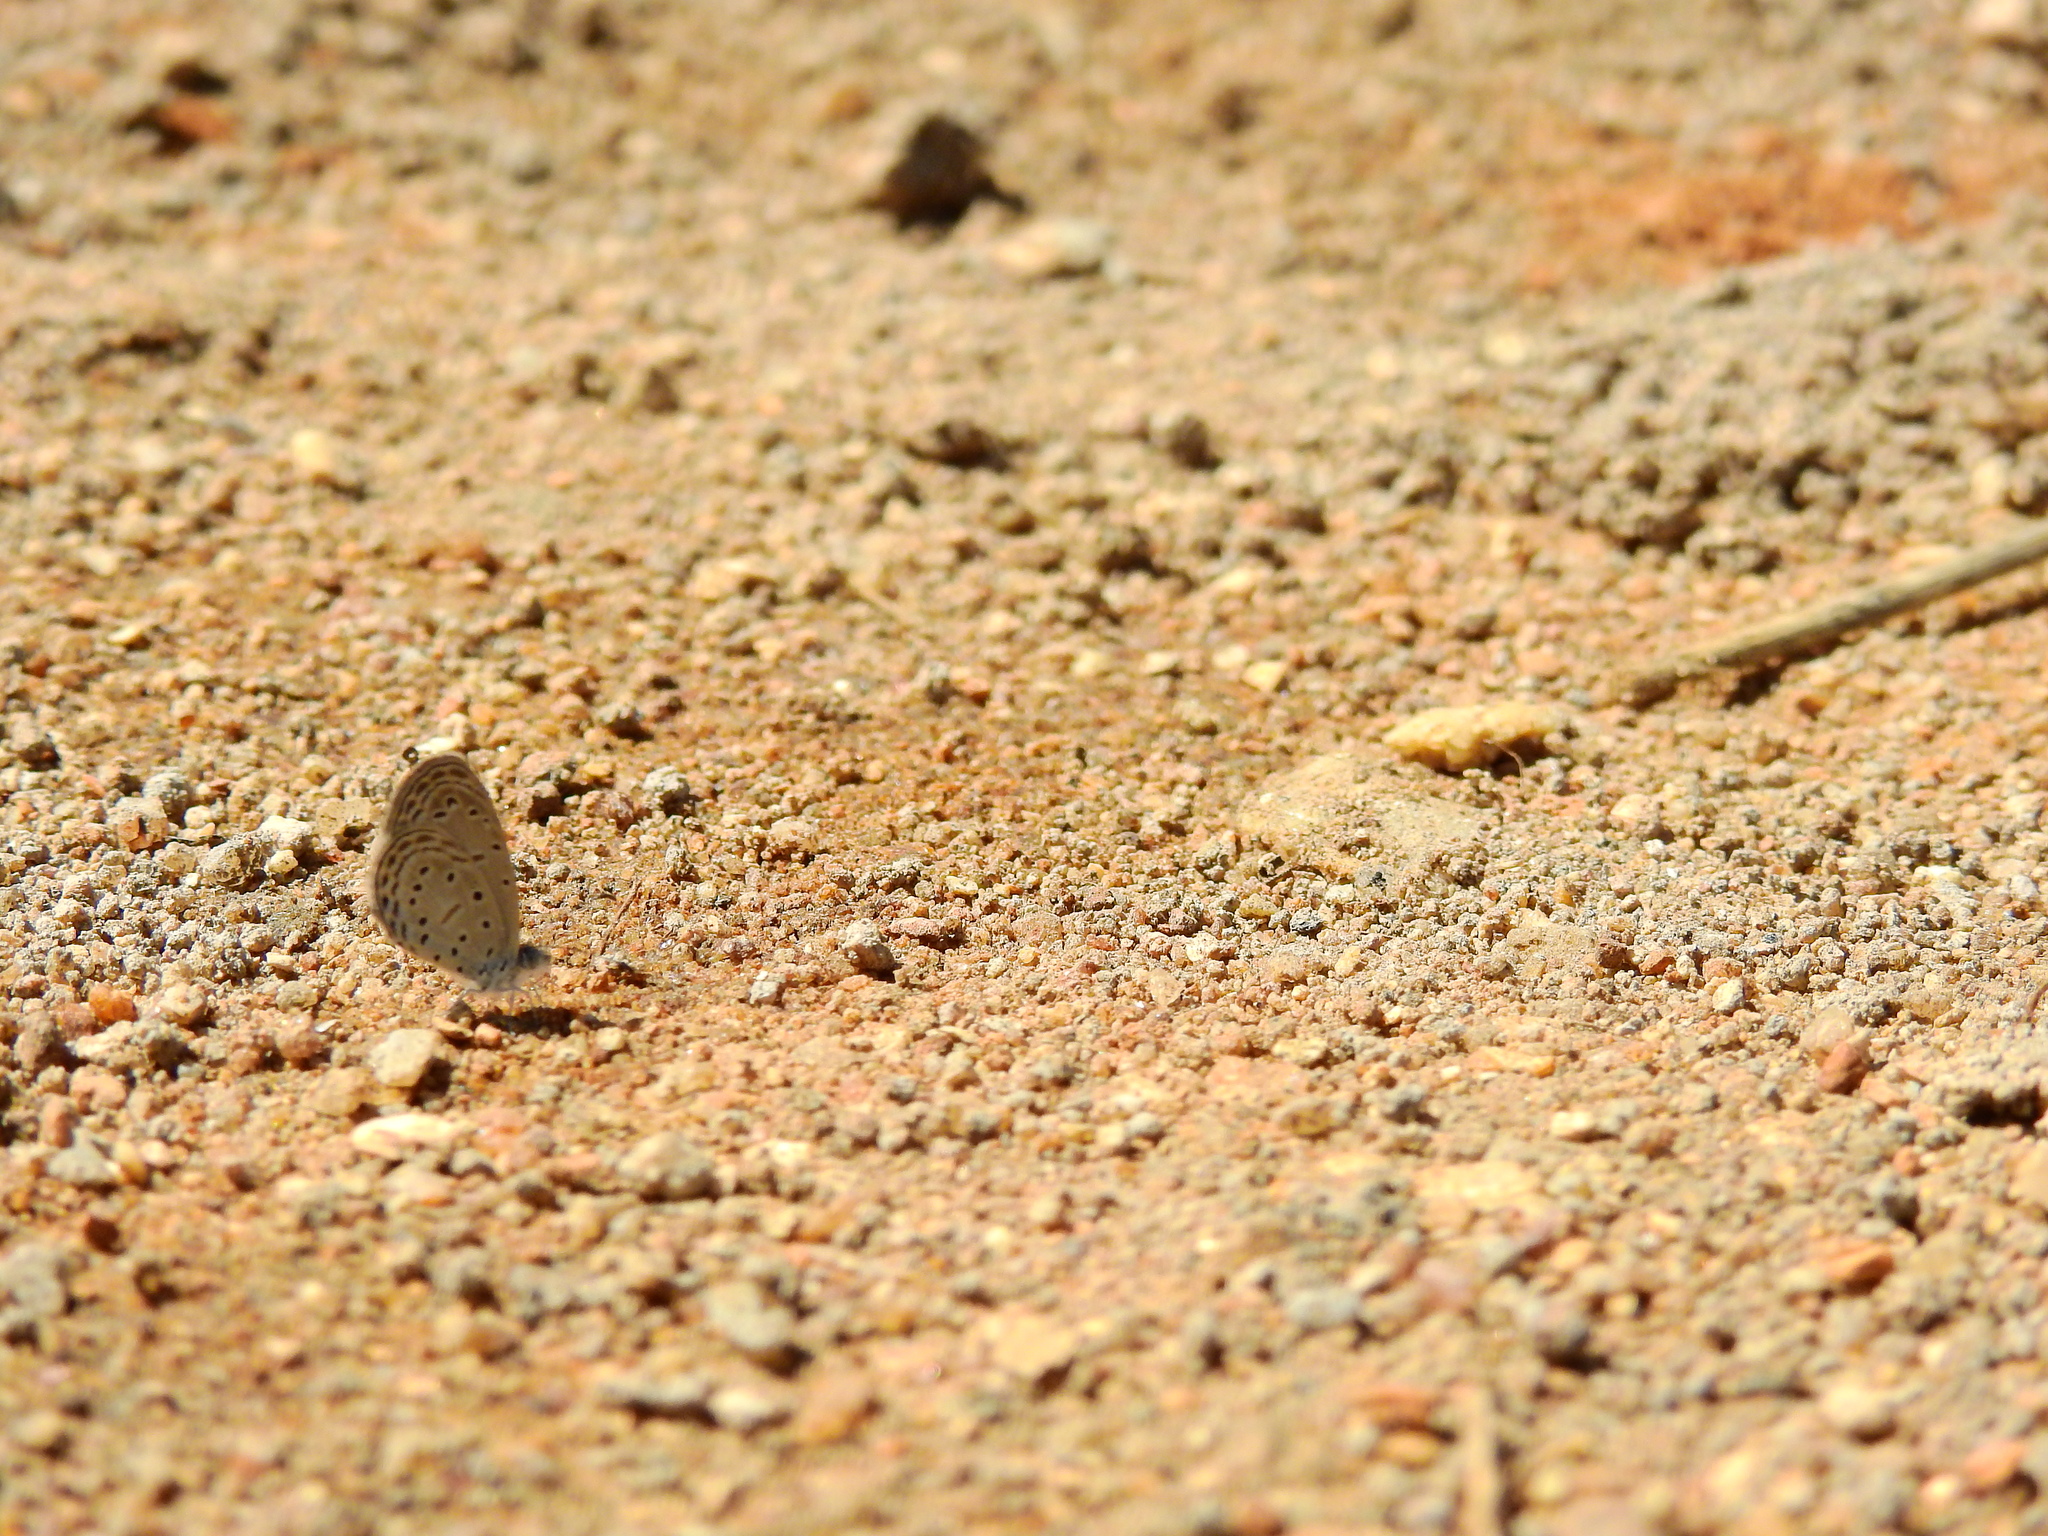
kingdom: Animalia
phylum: Arthropoda
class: Insecta
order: Lepidoptera
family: Lycaenidae
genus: Zizula
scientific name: Zizula hylax
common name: Gaika blue
